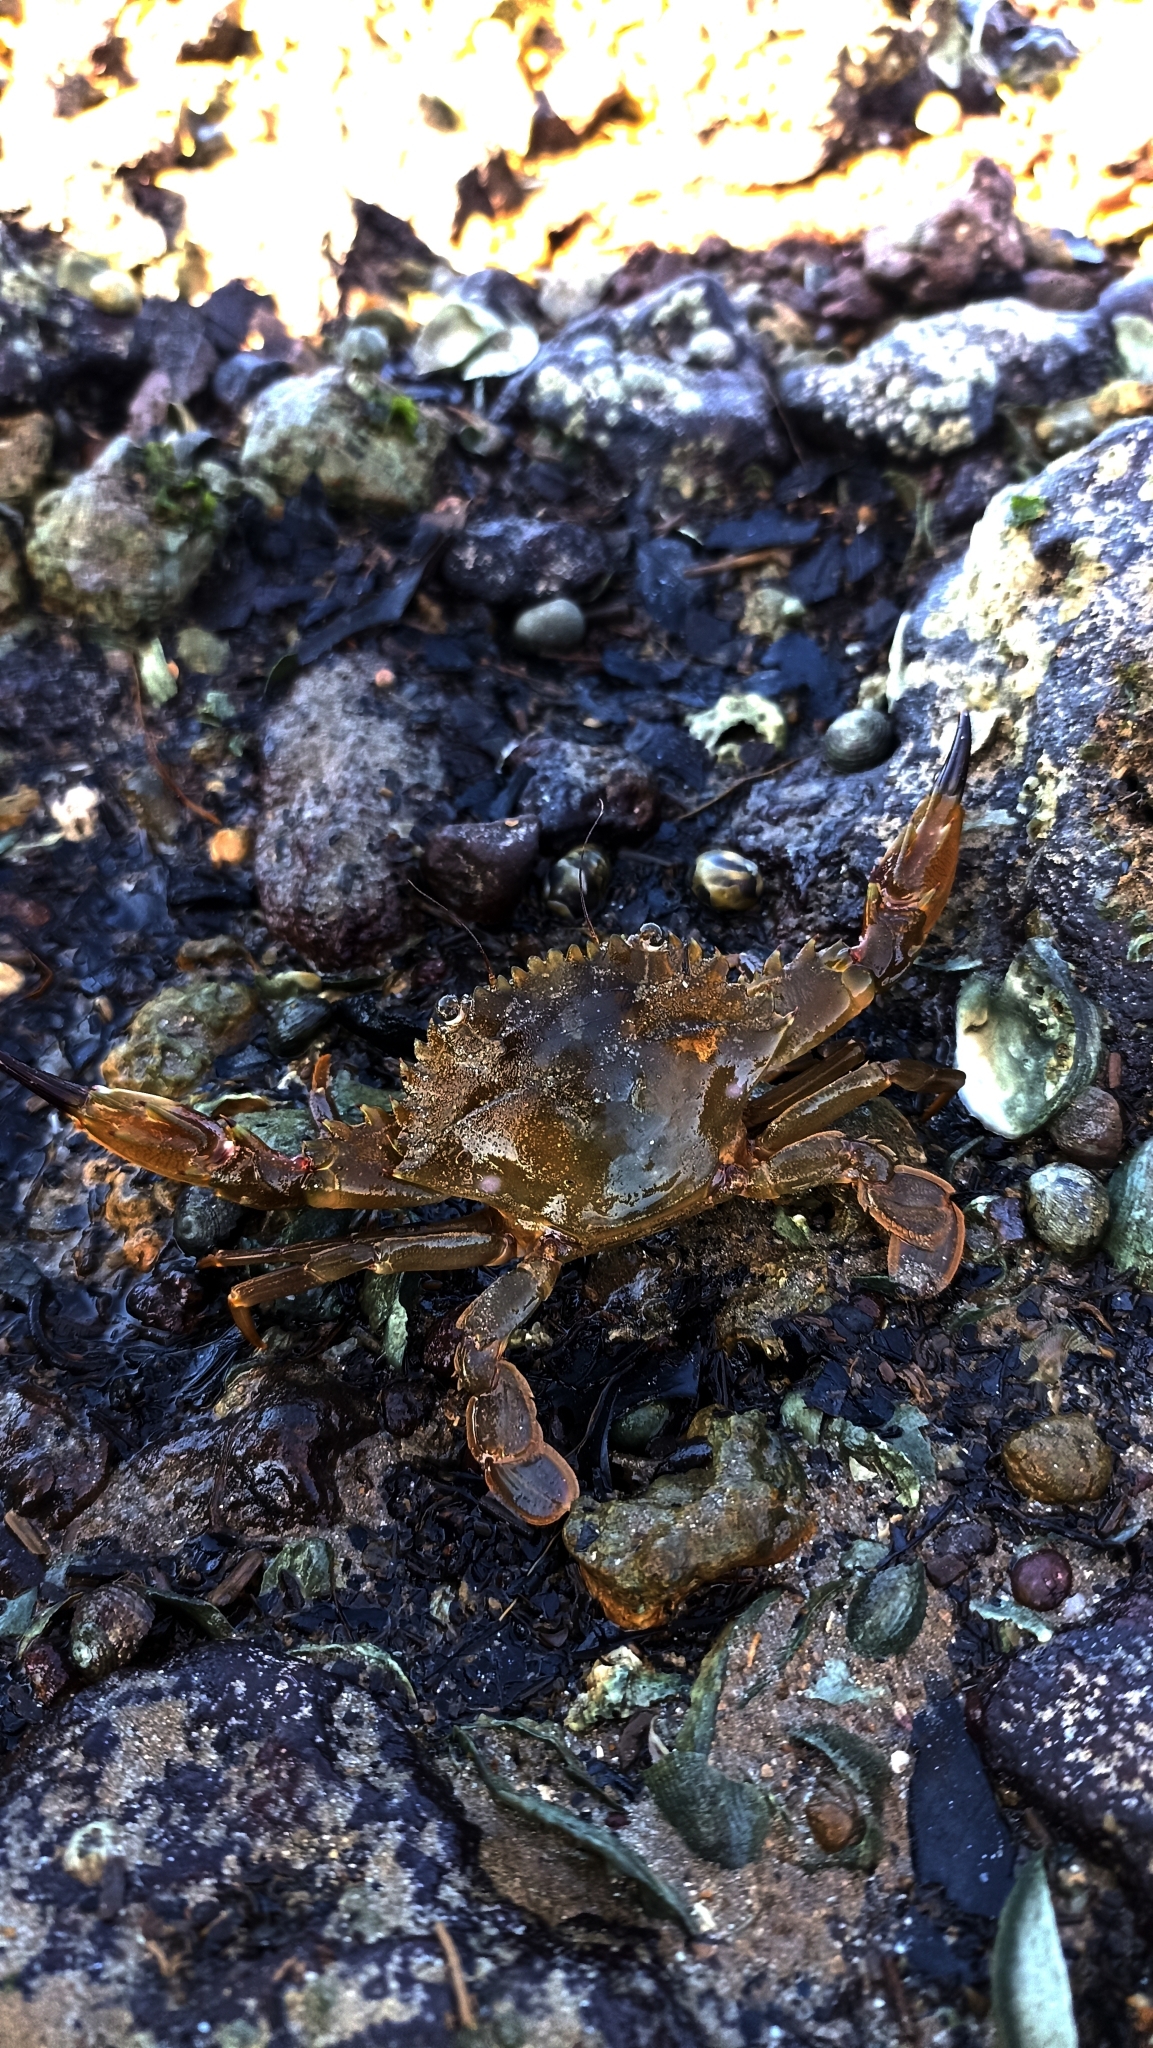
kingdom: Animalia
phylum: Arthropoda
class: Malacostraca
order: Decapoda
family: Portunidae
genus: Charybdis
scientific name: Charybdis hellerii
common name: Spiny hands
